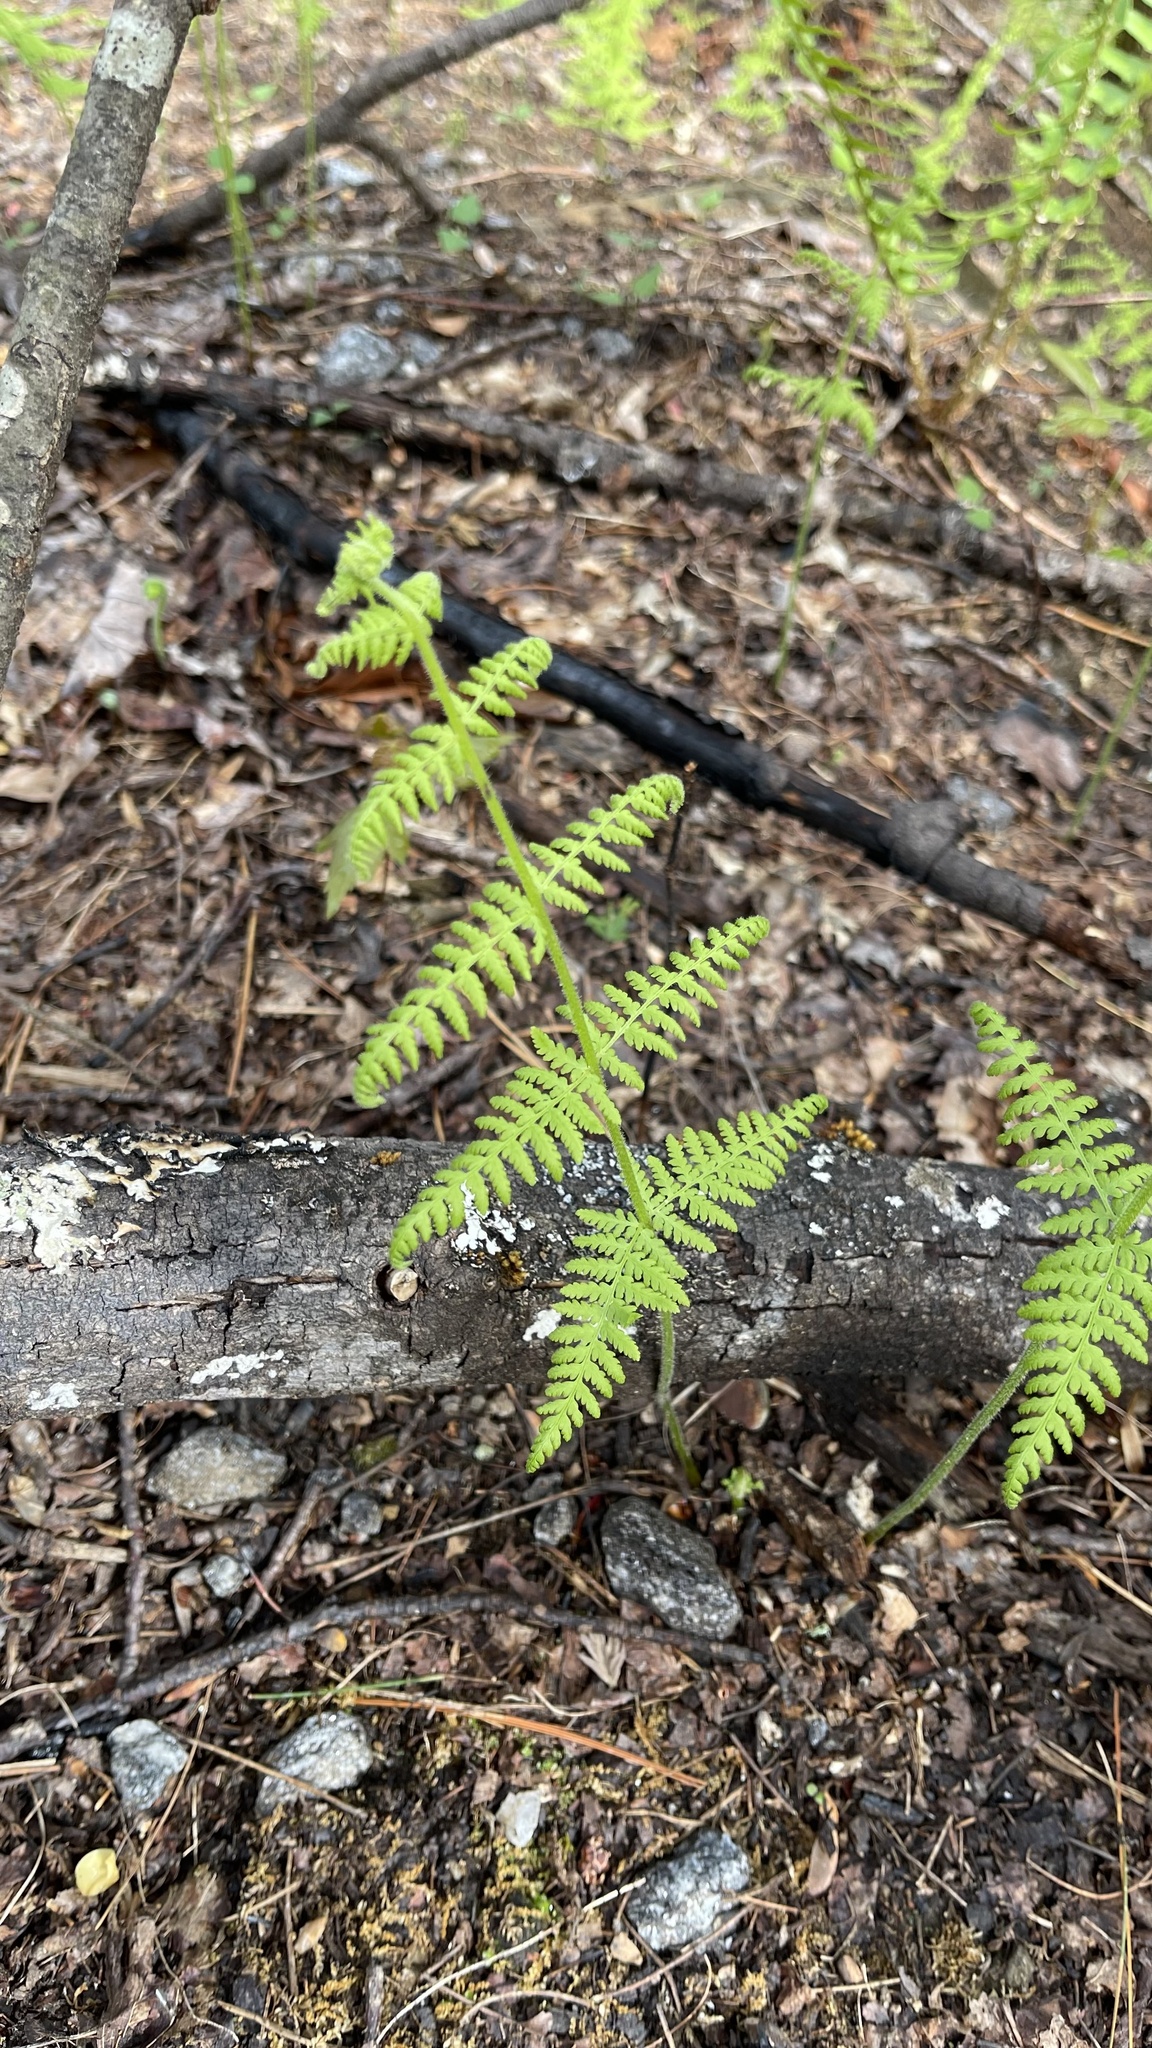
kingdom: Plantae
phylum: Tracheophyta
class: Polypodiopsida
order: Polypodiales
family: Dennstaedtiaceae
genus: Sitobolium
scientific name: Sitobolium punctilobum
